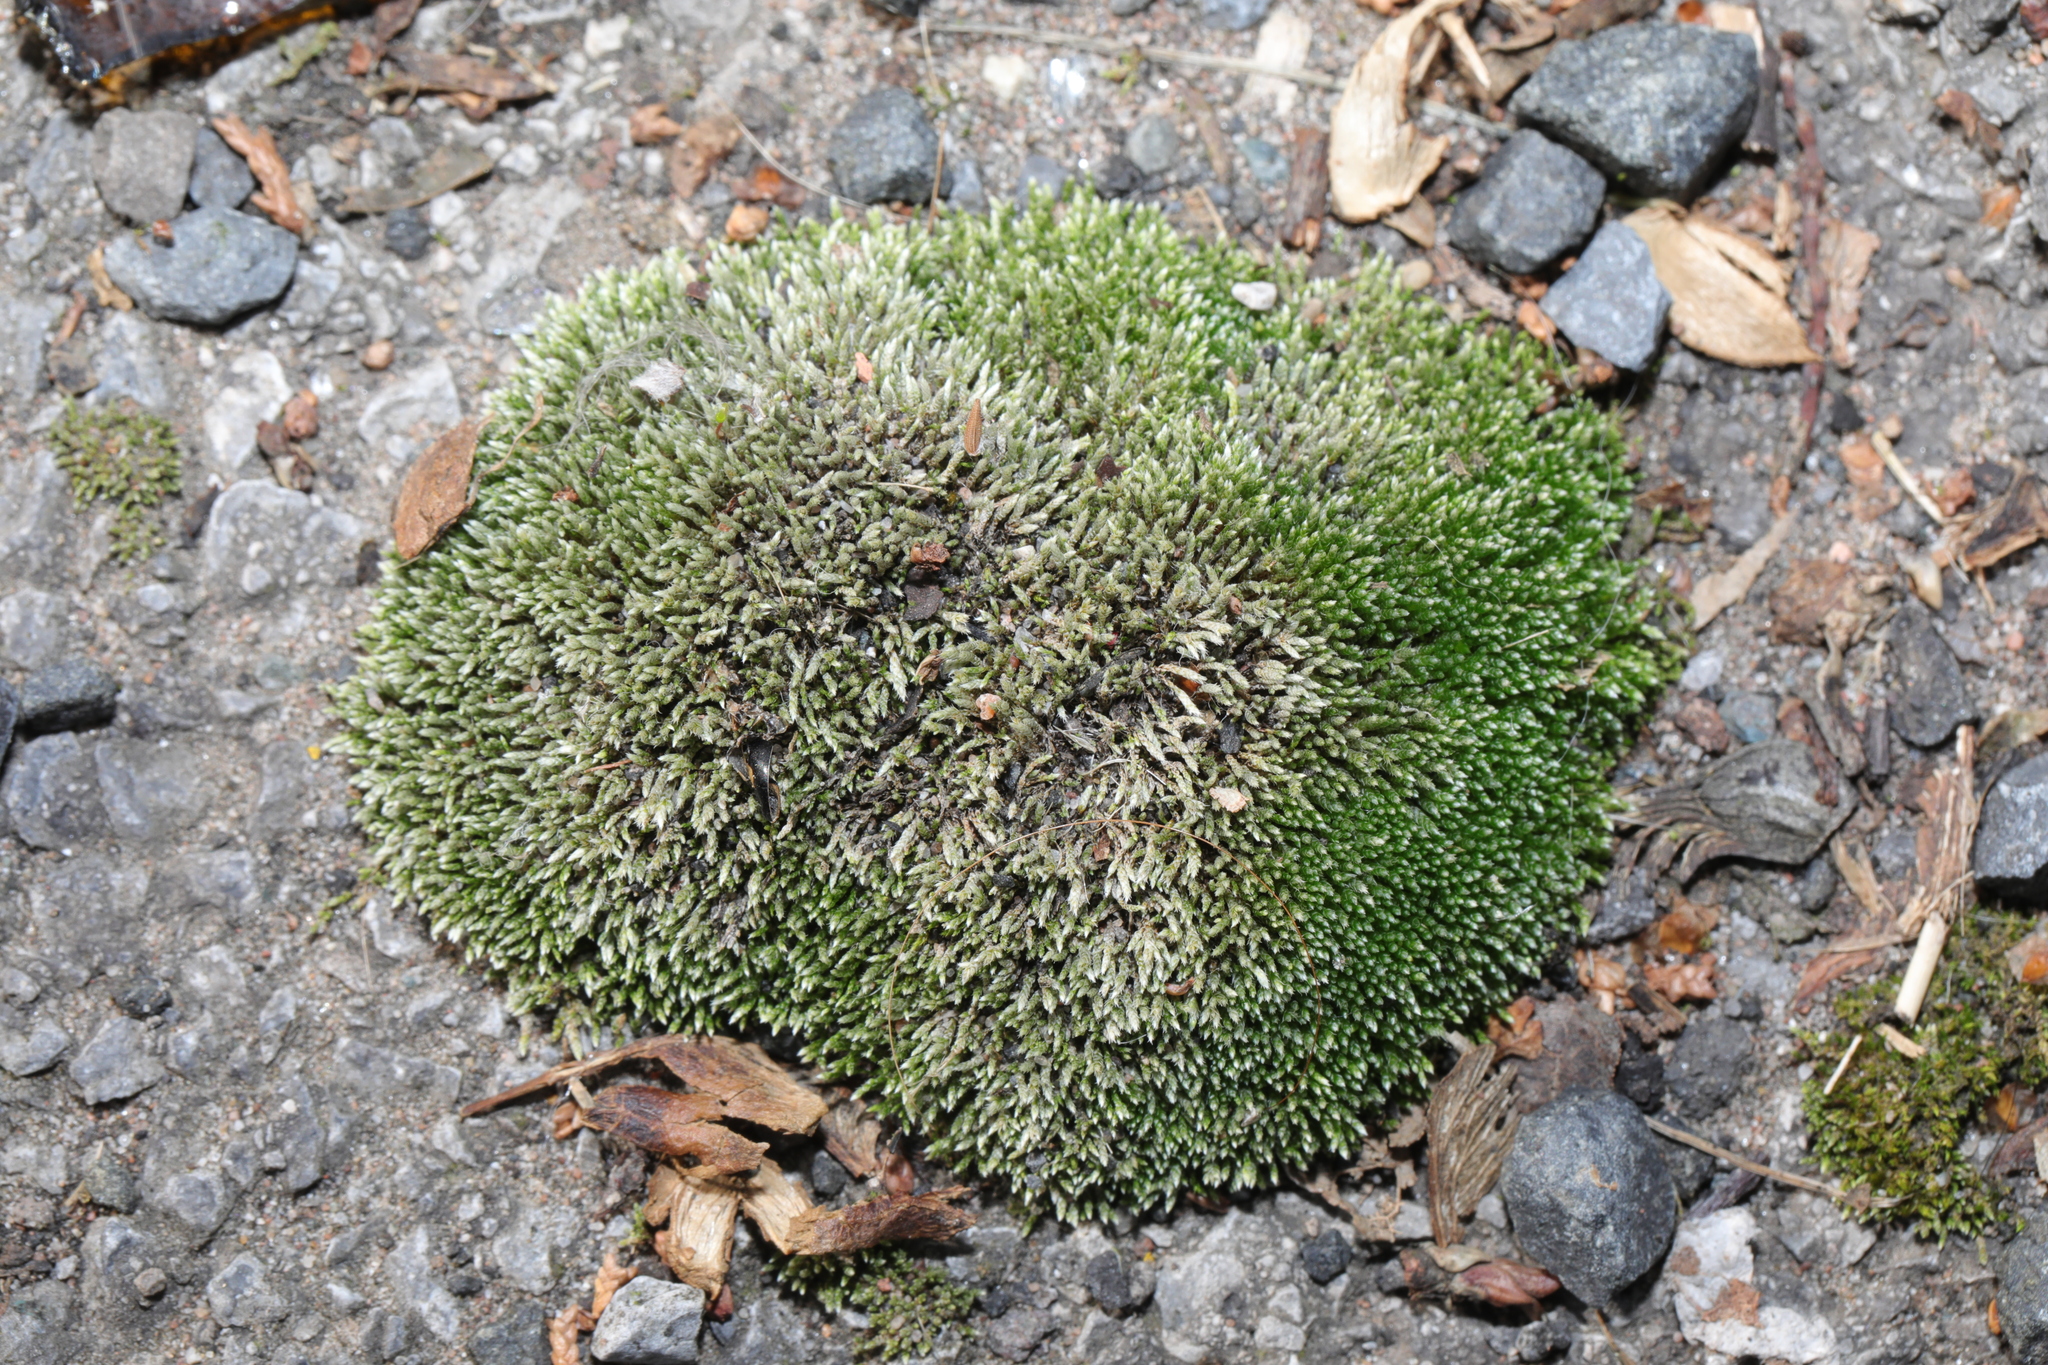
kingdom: Plantae
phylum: Bryophyta
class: Bryopsida
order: Bryales
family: Bryaceae
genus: Bryum
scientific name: Bryum argenteum
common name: Silver-moss
